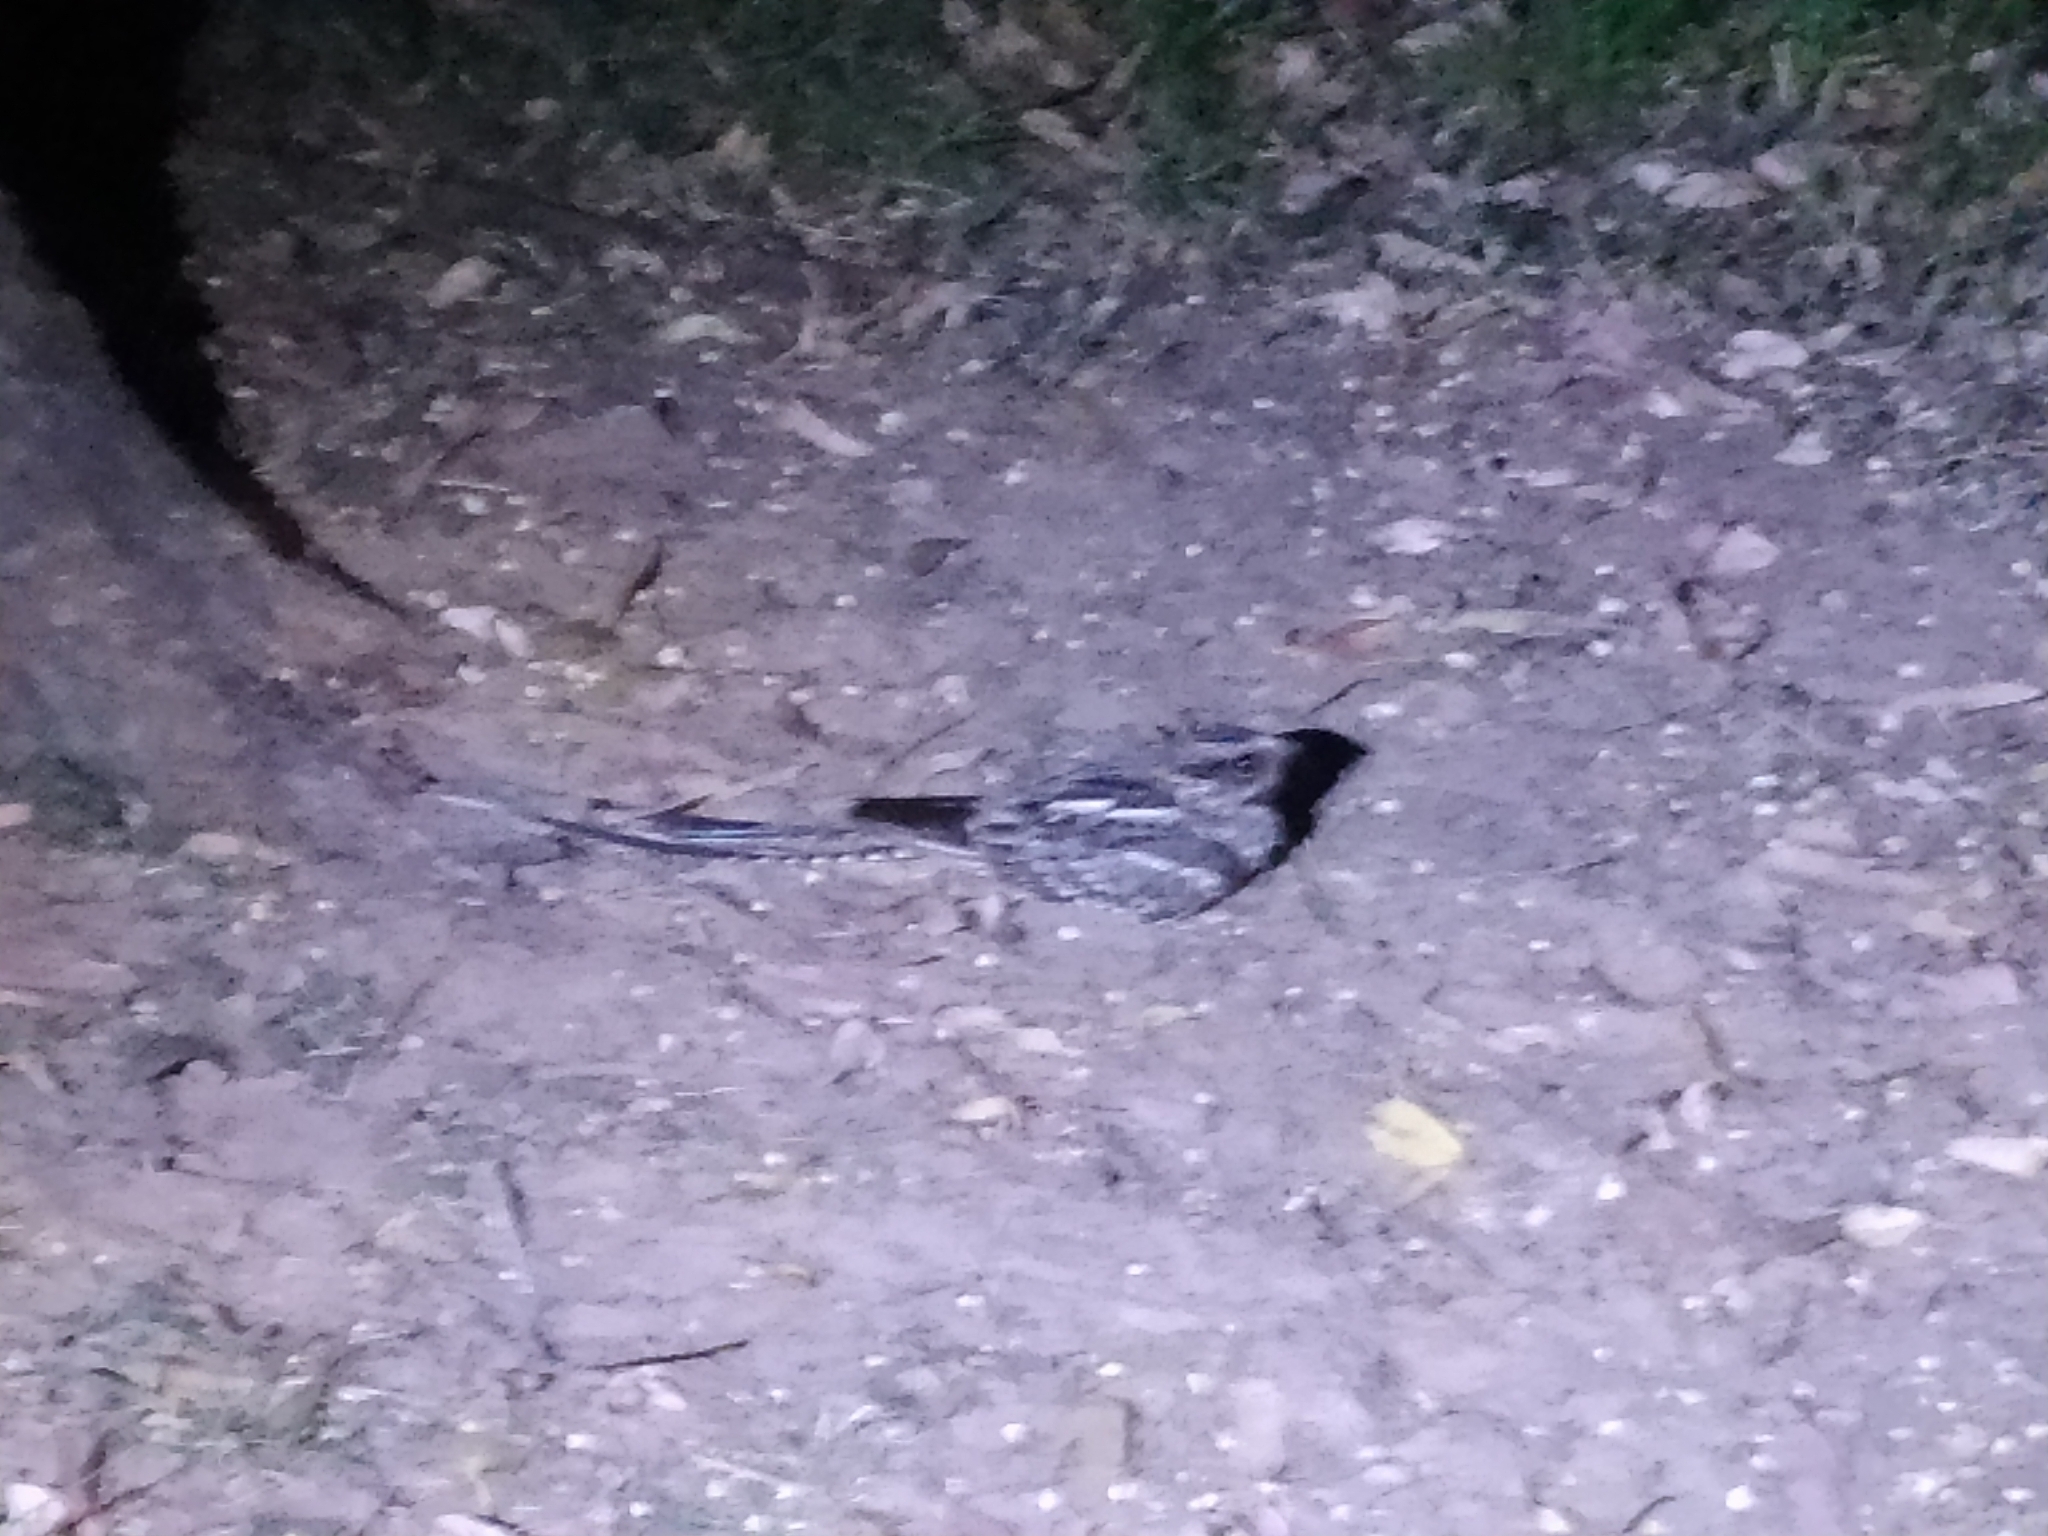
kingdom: Animalia
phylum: Chordata
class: Aves
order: Caprimulgiformes
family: Caprimulgidae
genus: Hydropsalis
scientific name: Hydropsalis torquata
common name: Scissor-tailed nightjar
